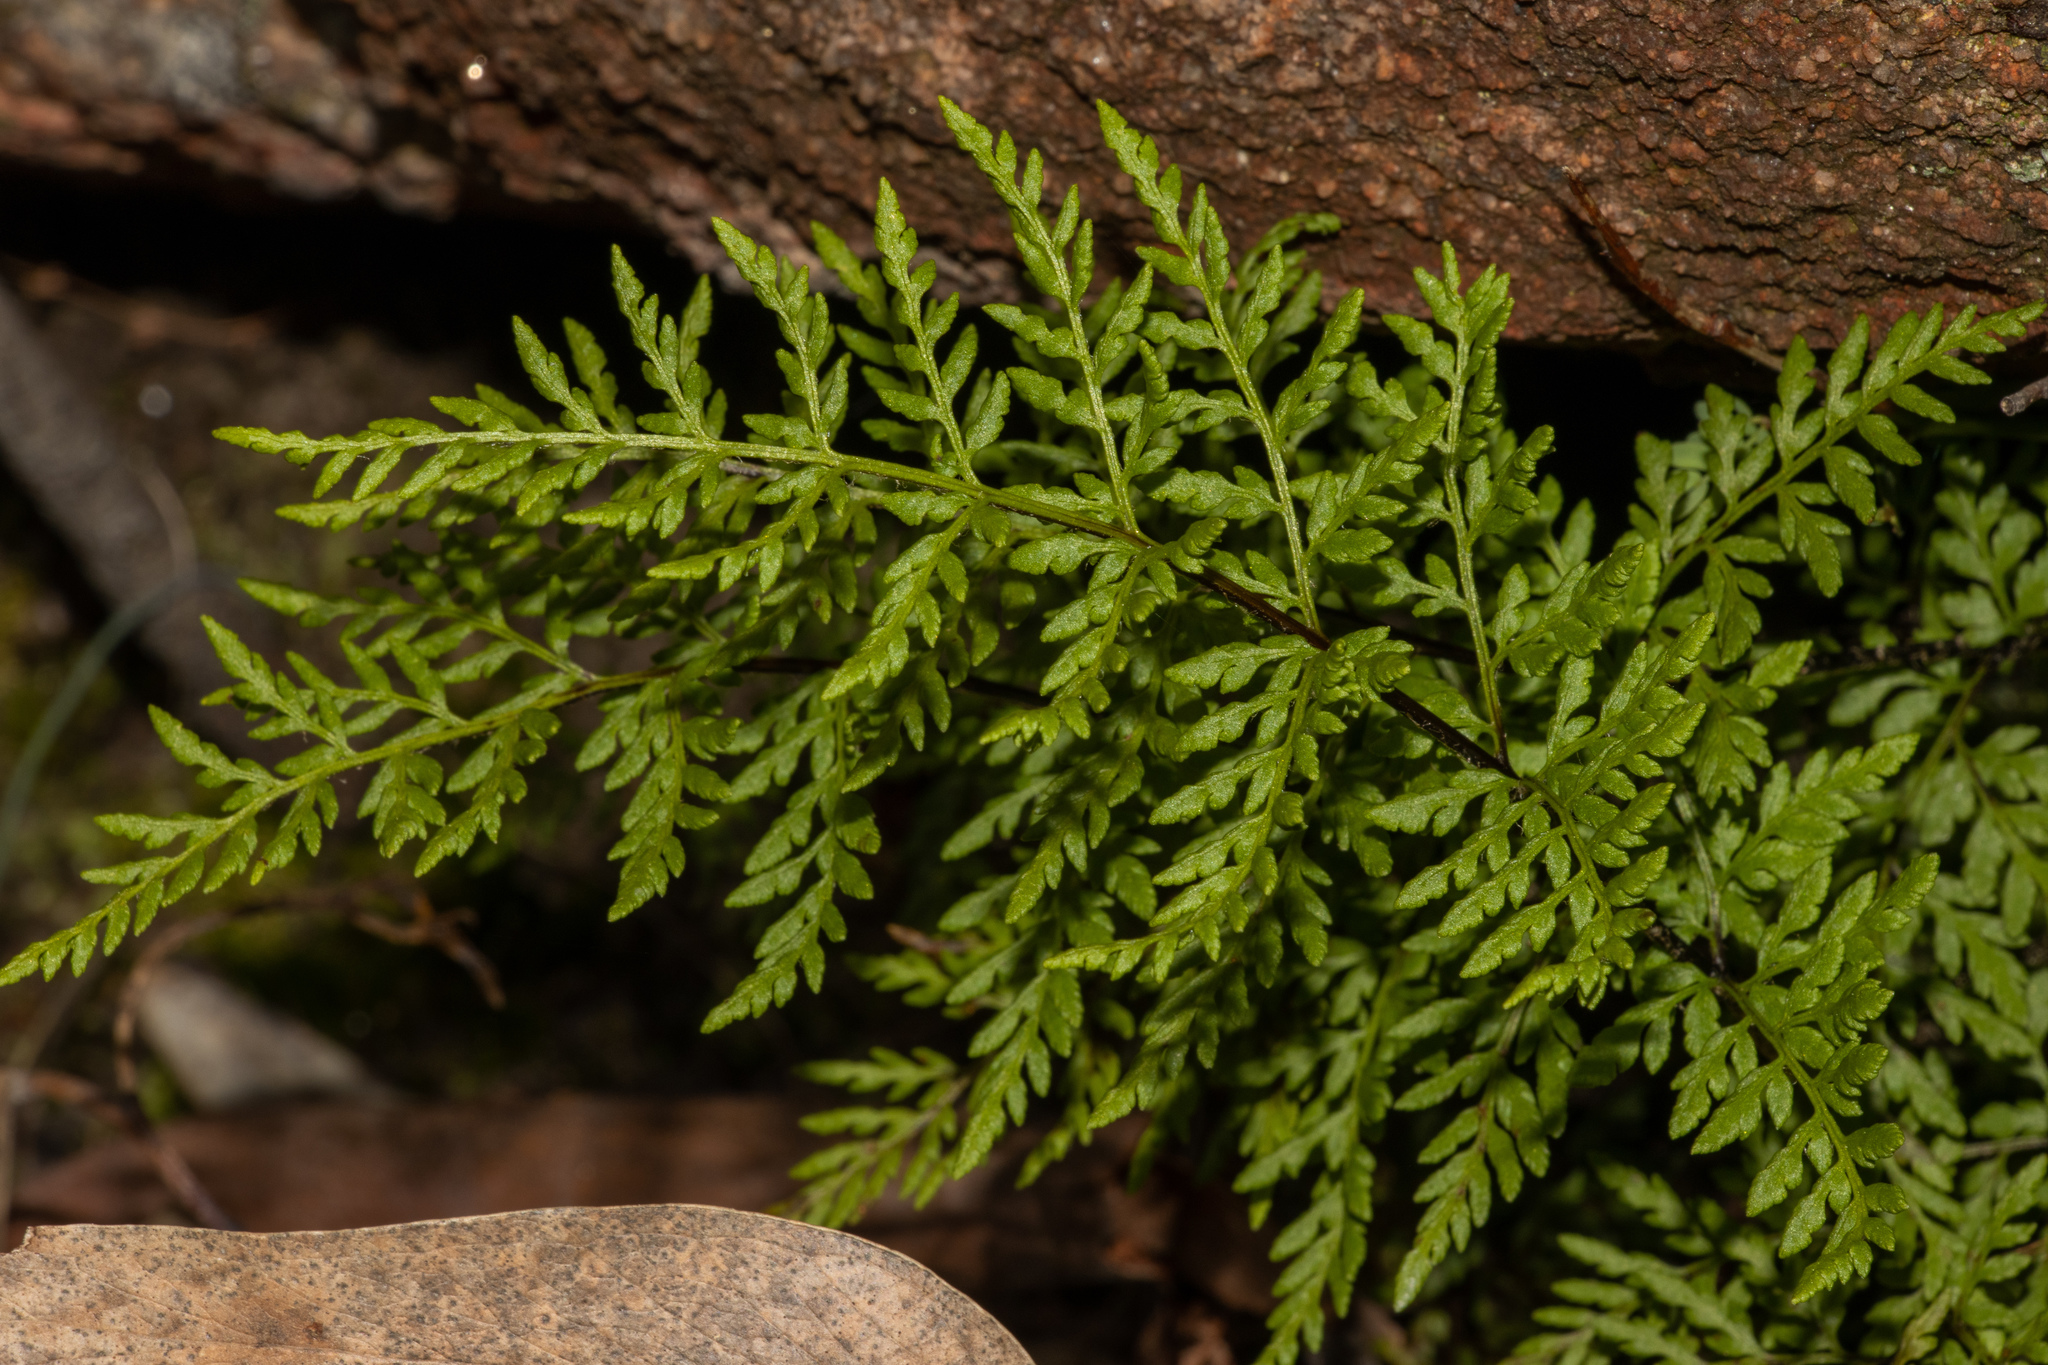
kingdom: Plantae
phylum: Tracheophyta
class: Polypodiopsida
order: Polypodiales
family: Pteridaceae
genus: Cheilanthes
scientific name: Cheilanthes austrotenuifolia
